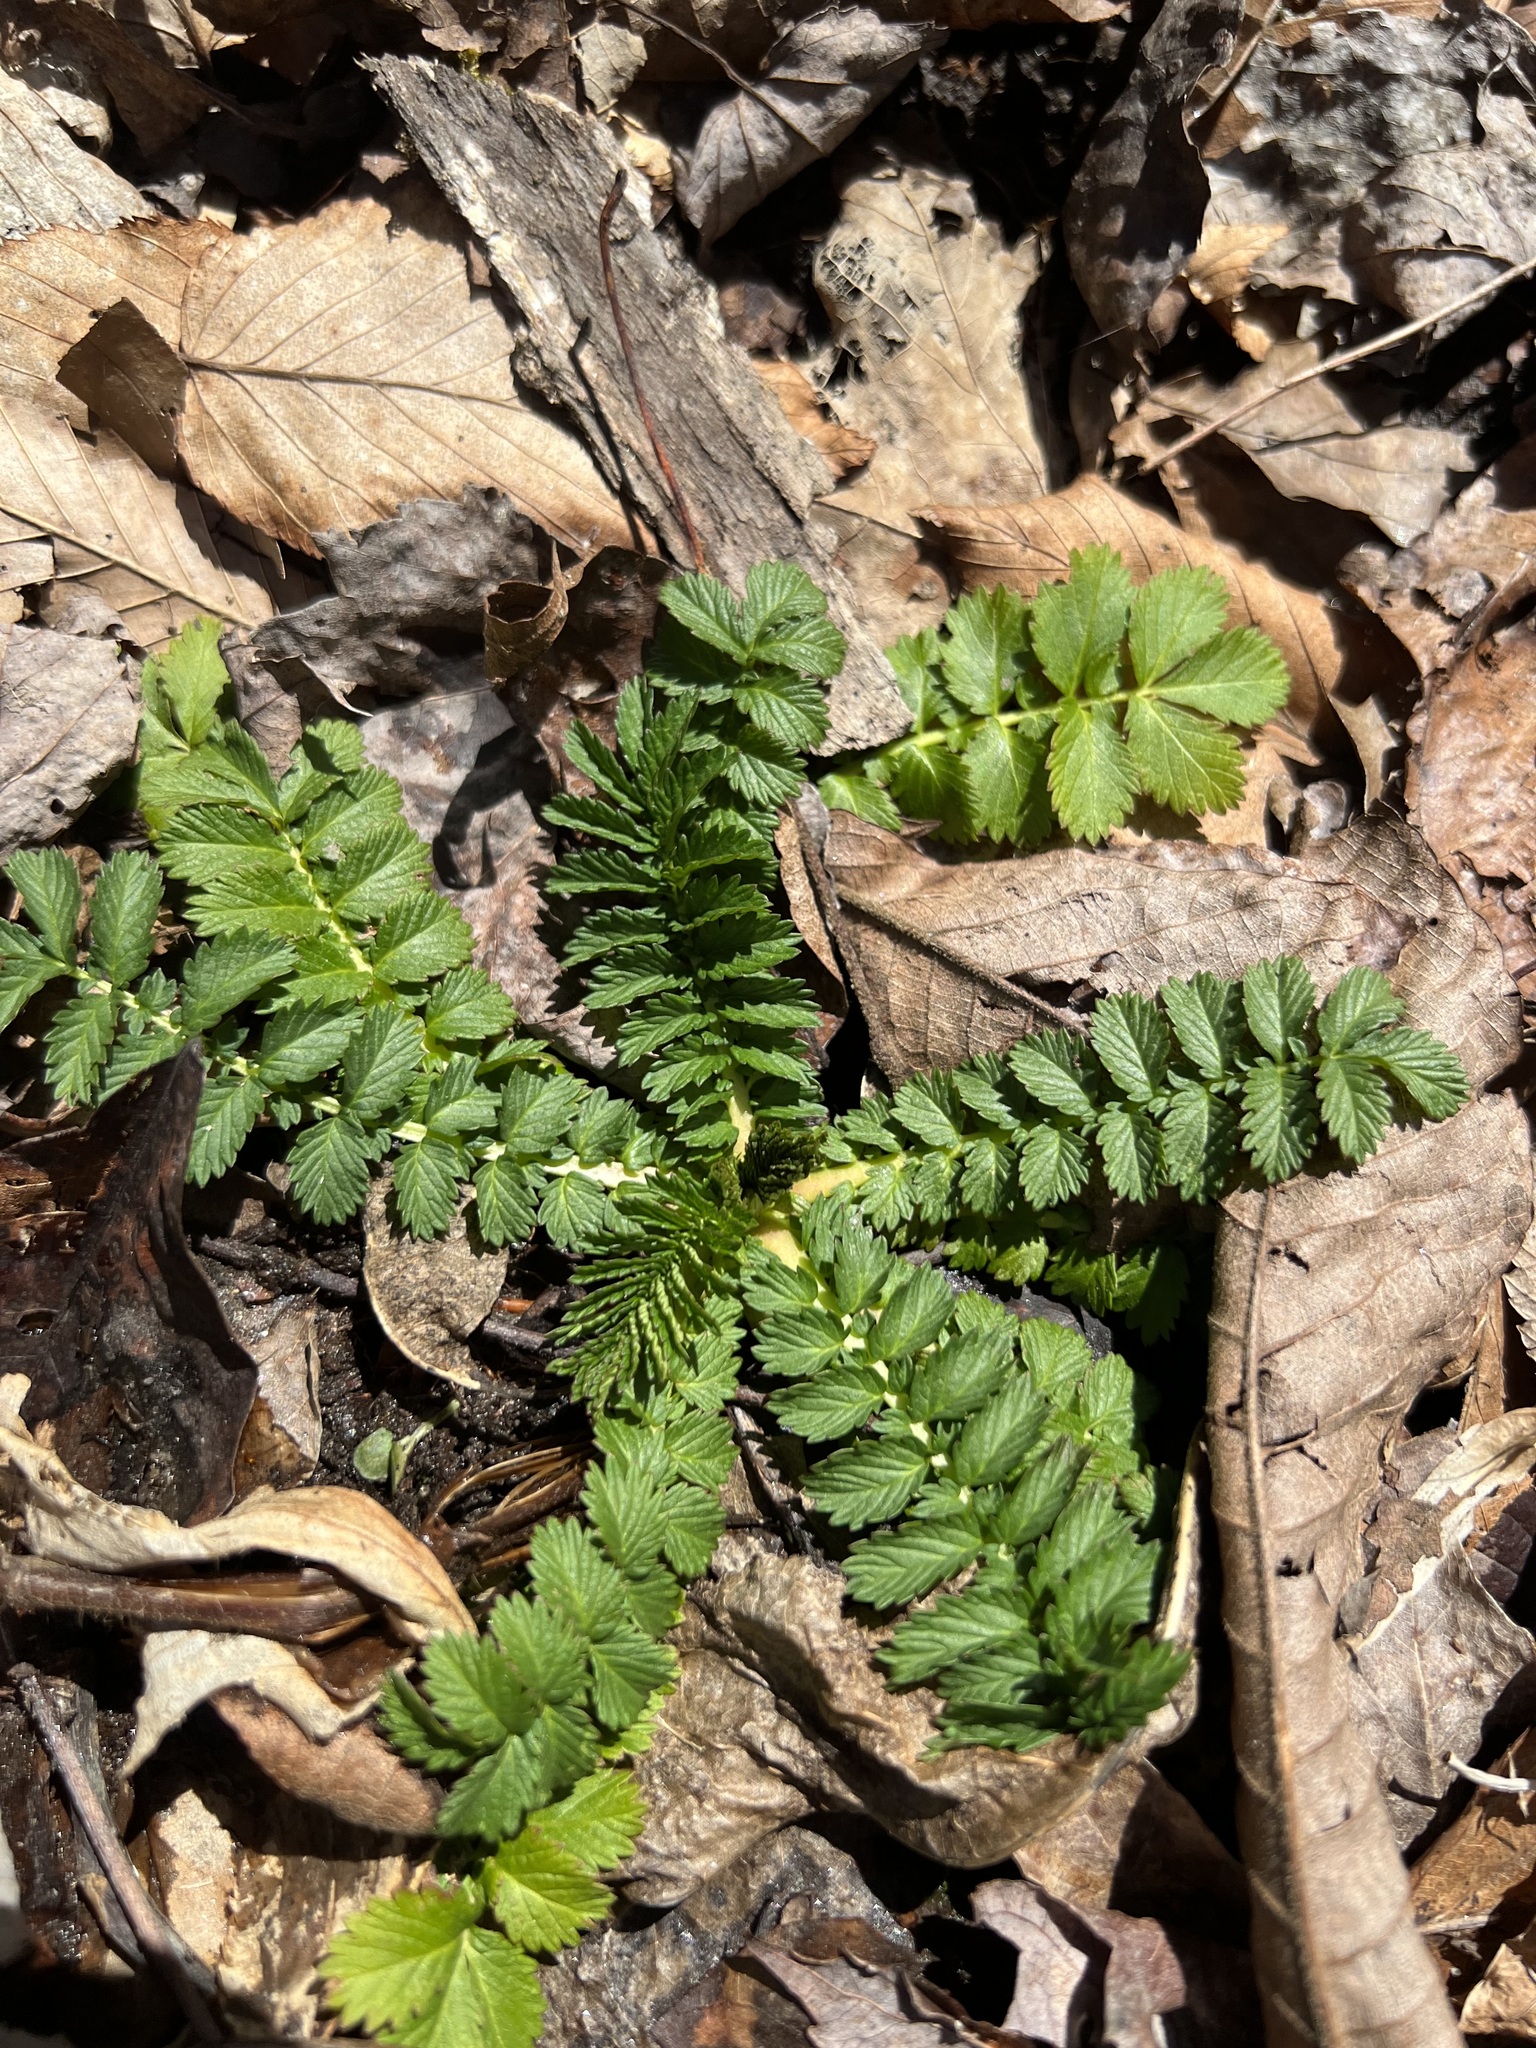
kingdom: Plantae
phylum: Tracheophyta
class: Magnoliopsida
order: Rosales
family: Rosaceae
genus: Agrimonia
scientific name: Agrimonia parviflora
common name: Harvest-lice
